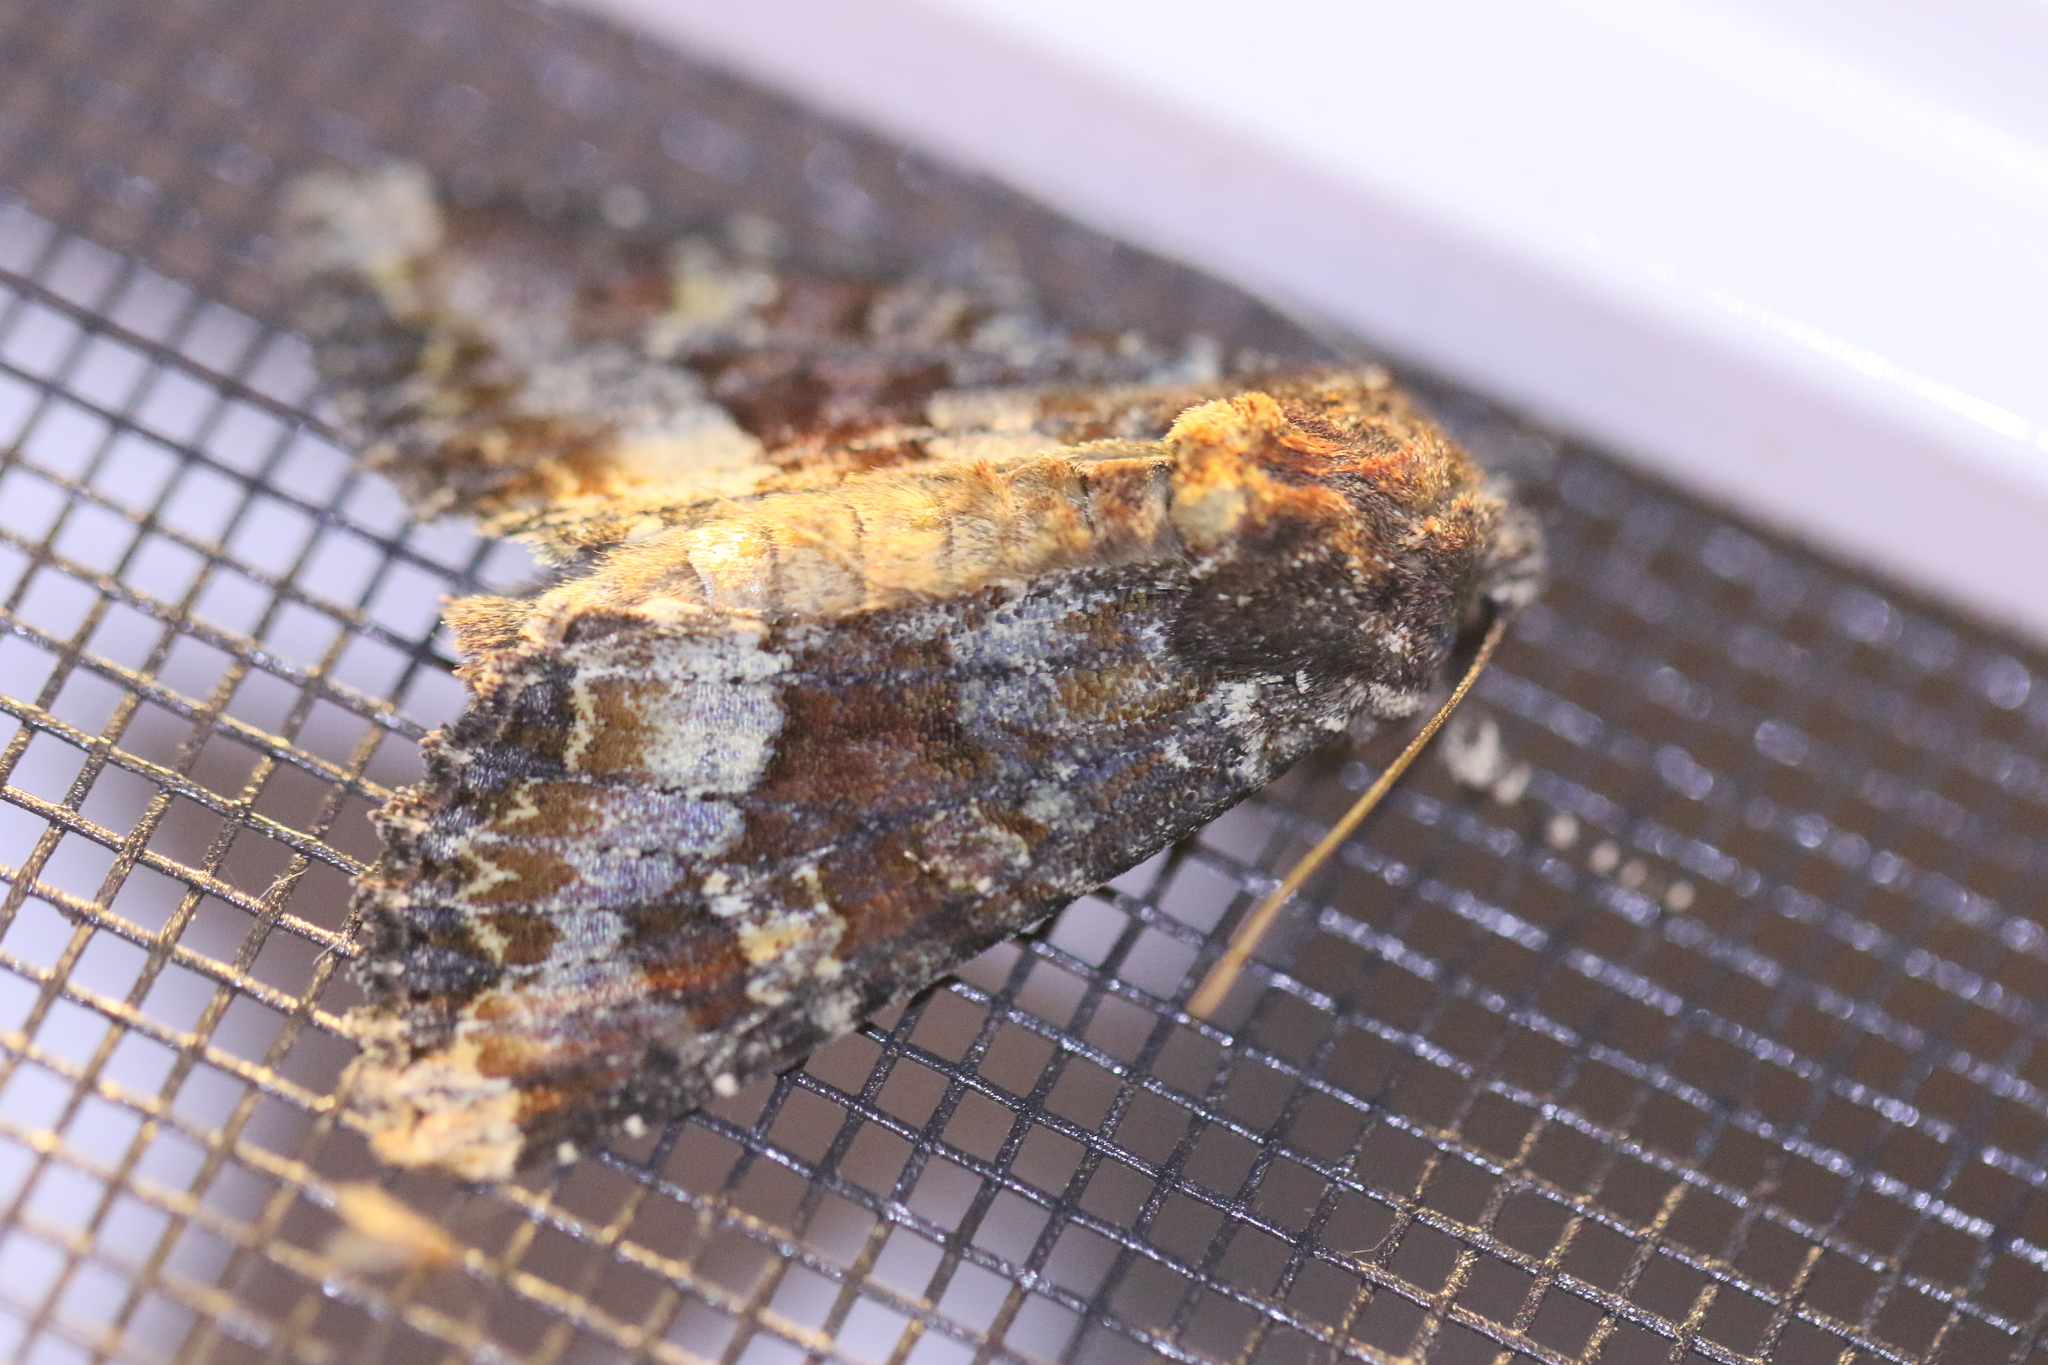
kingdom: Animalia
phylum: Arthropoda
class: Insecta
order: Lepidoptera
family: Noctuidae
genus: Apamea
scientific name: Apamea amputatrix
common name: Yellow-headed cutworm moth
